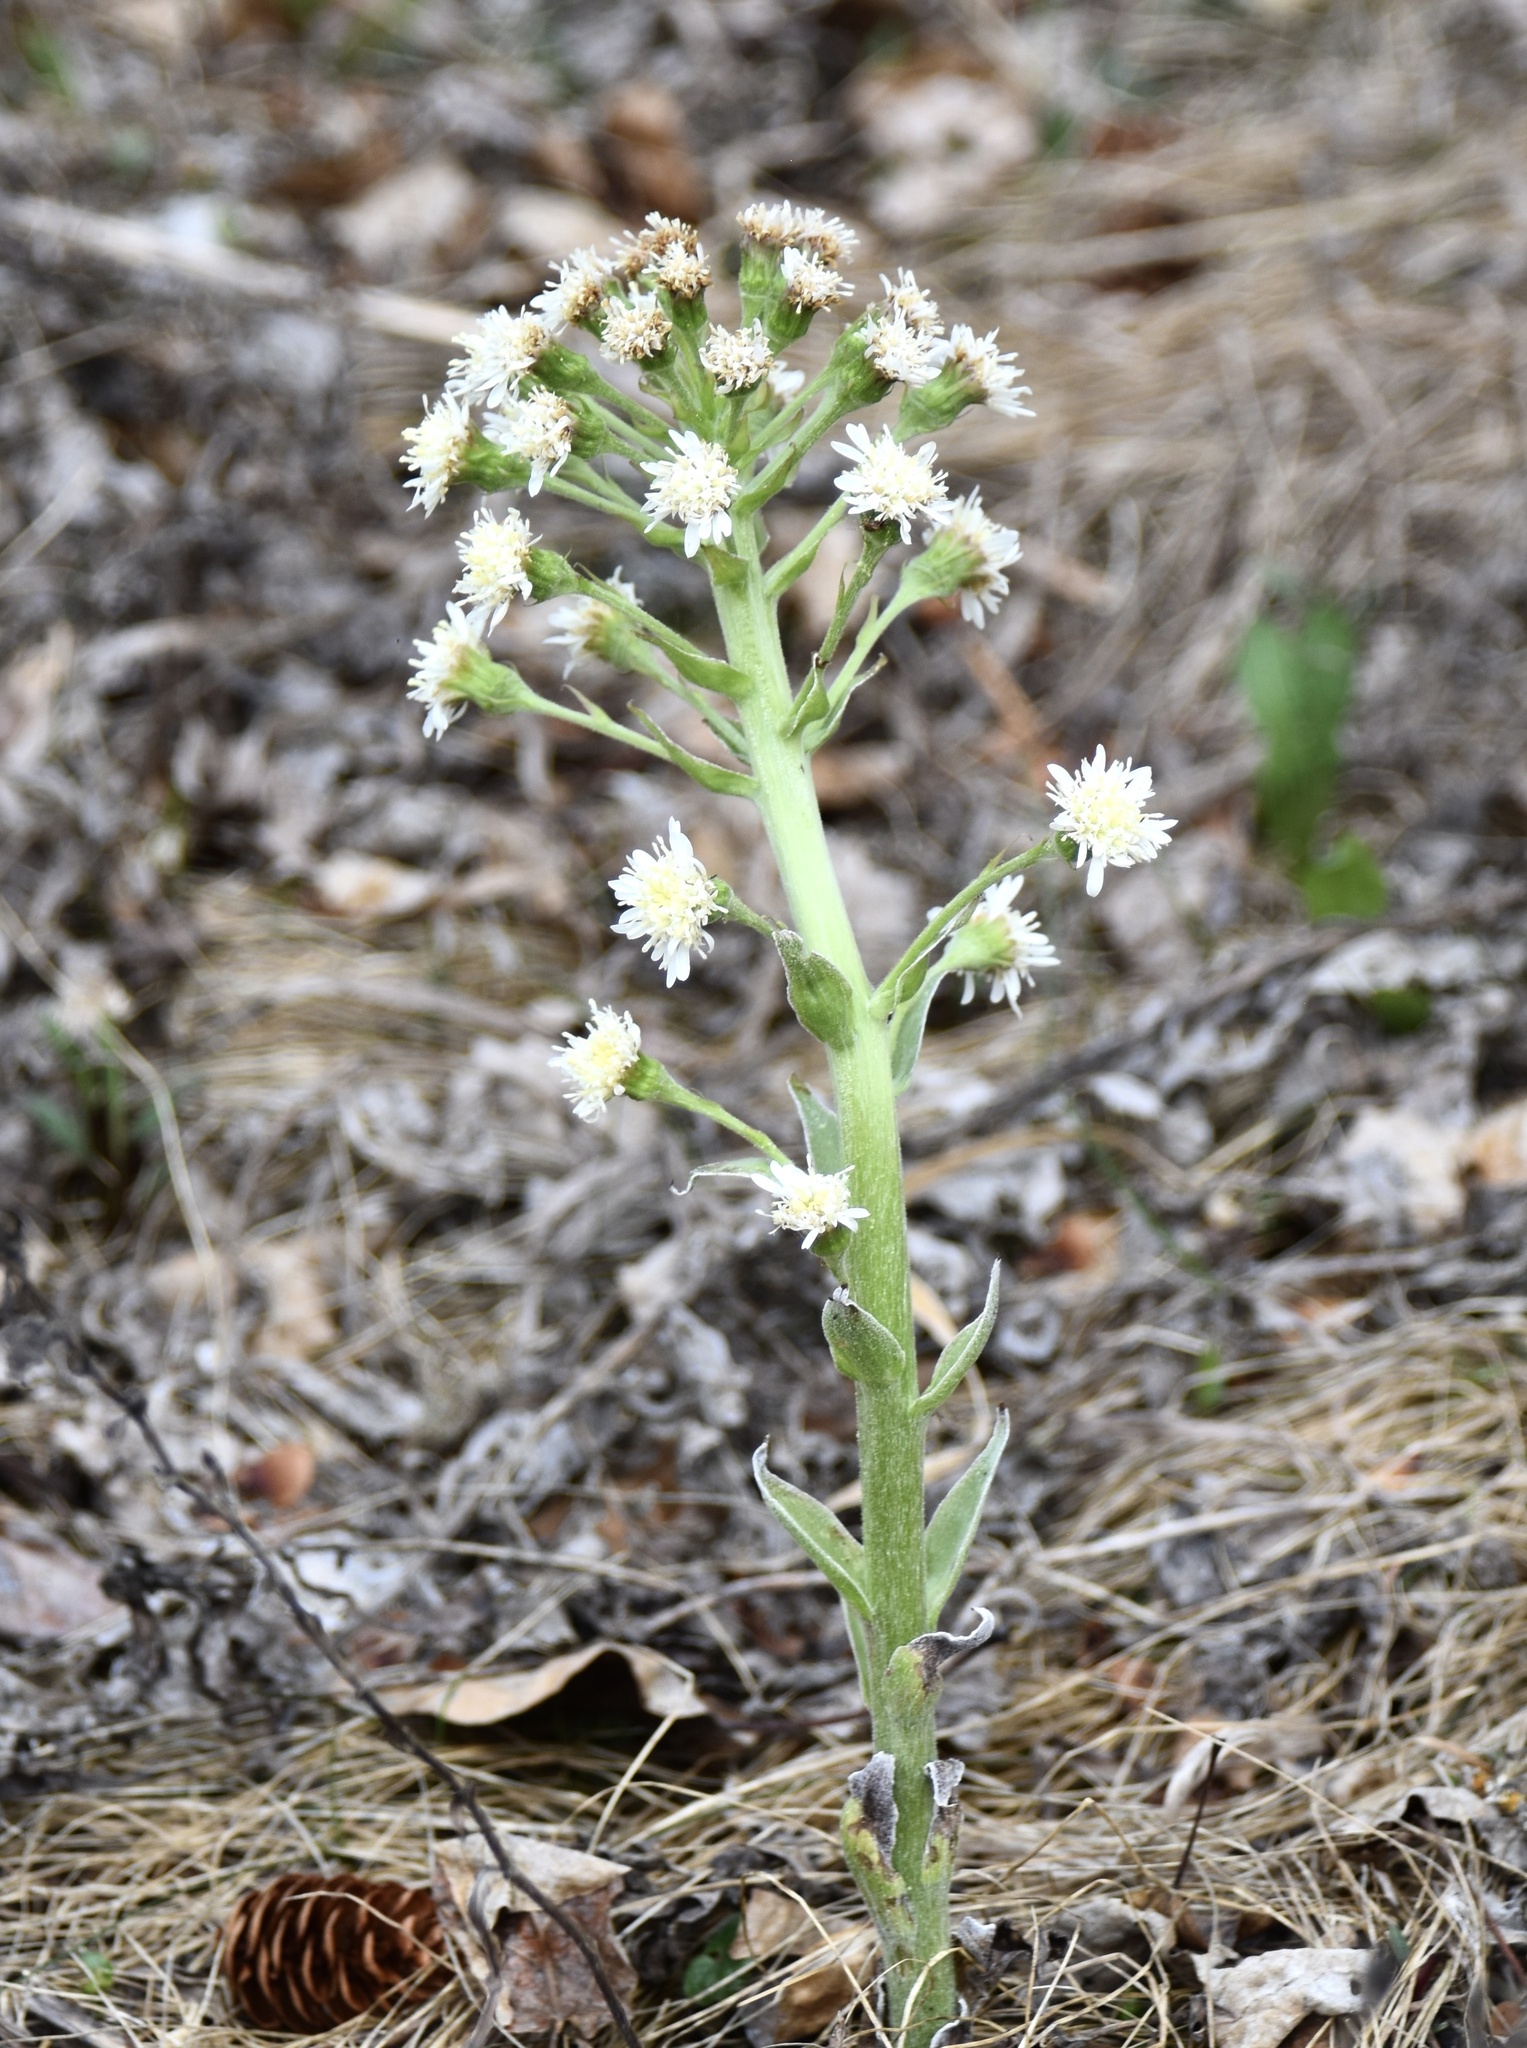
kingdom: Plantae
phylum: Tracheophyta
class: Magnoliopsida
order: Asterales
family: Asteraceae
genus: Petasites
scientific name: Petasites frigidus
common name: Arctic butterbur
